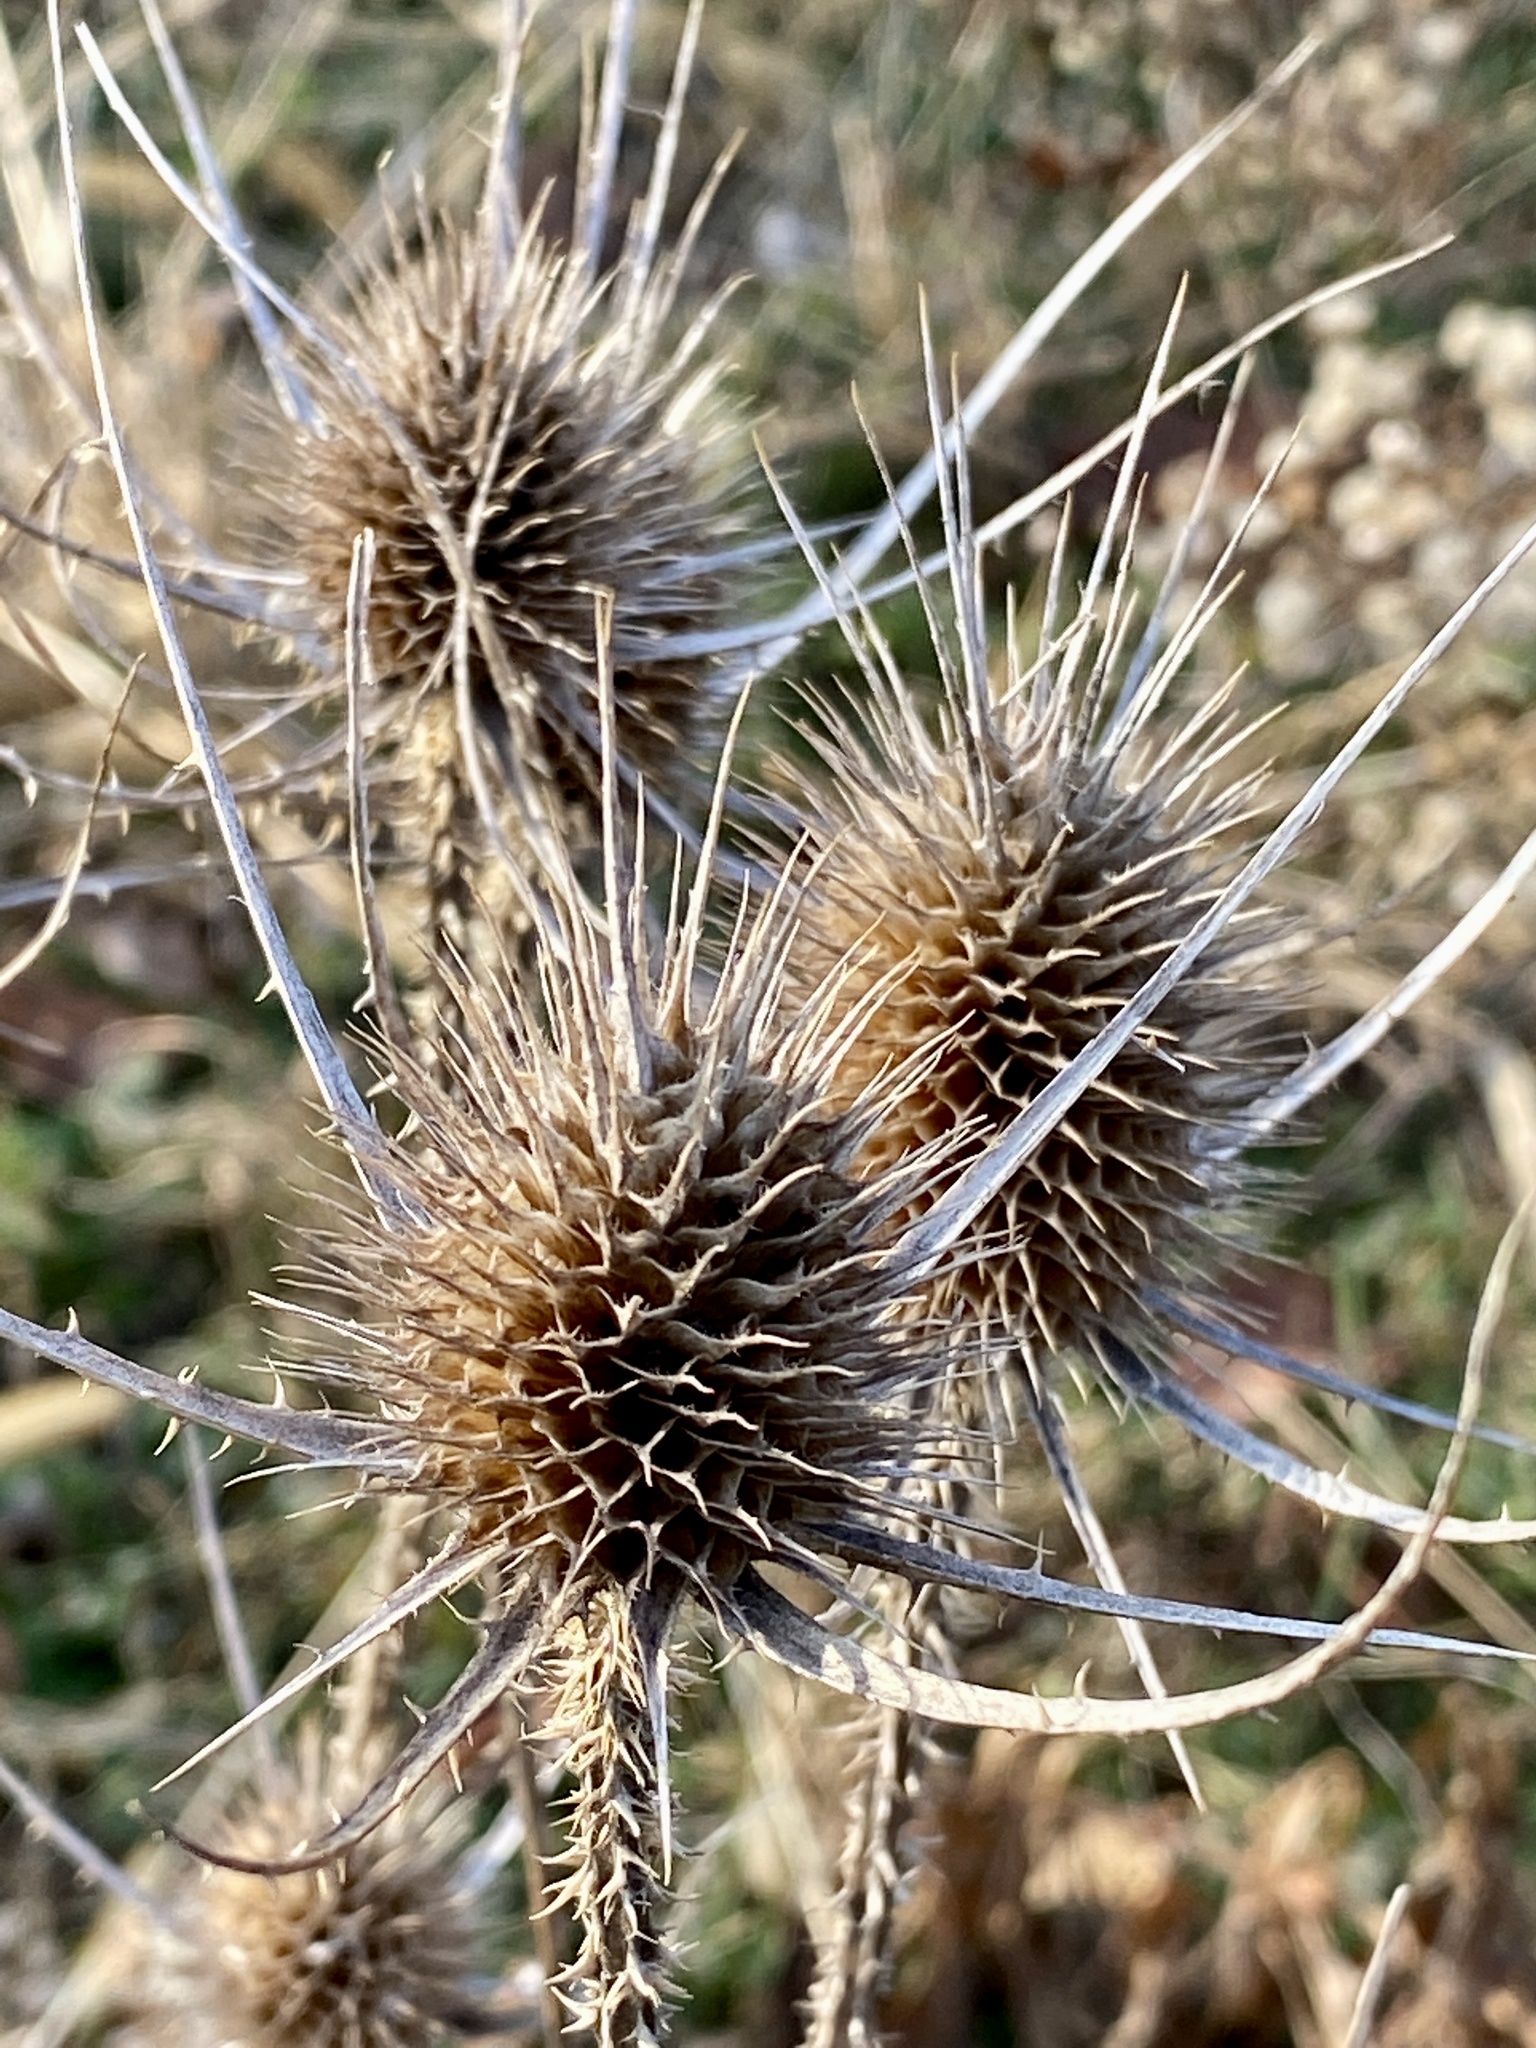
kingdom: Plantae
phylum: Tracheophyta
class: Magnoliopsida
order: Dipsacales
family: Caprifoliaceae
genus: Dipsacus
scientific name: Dipsacus fullonum
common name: Teasel
